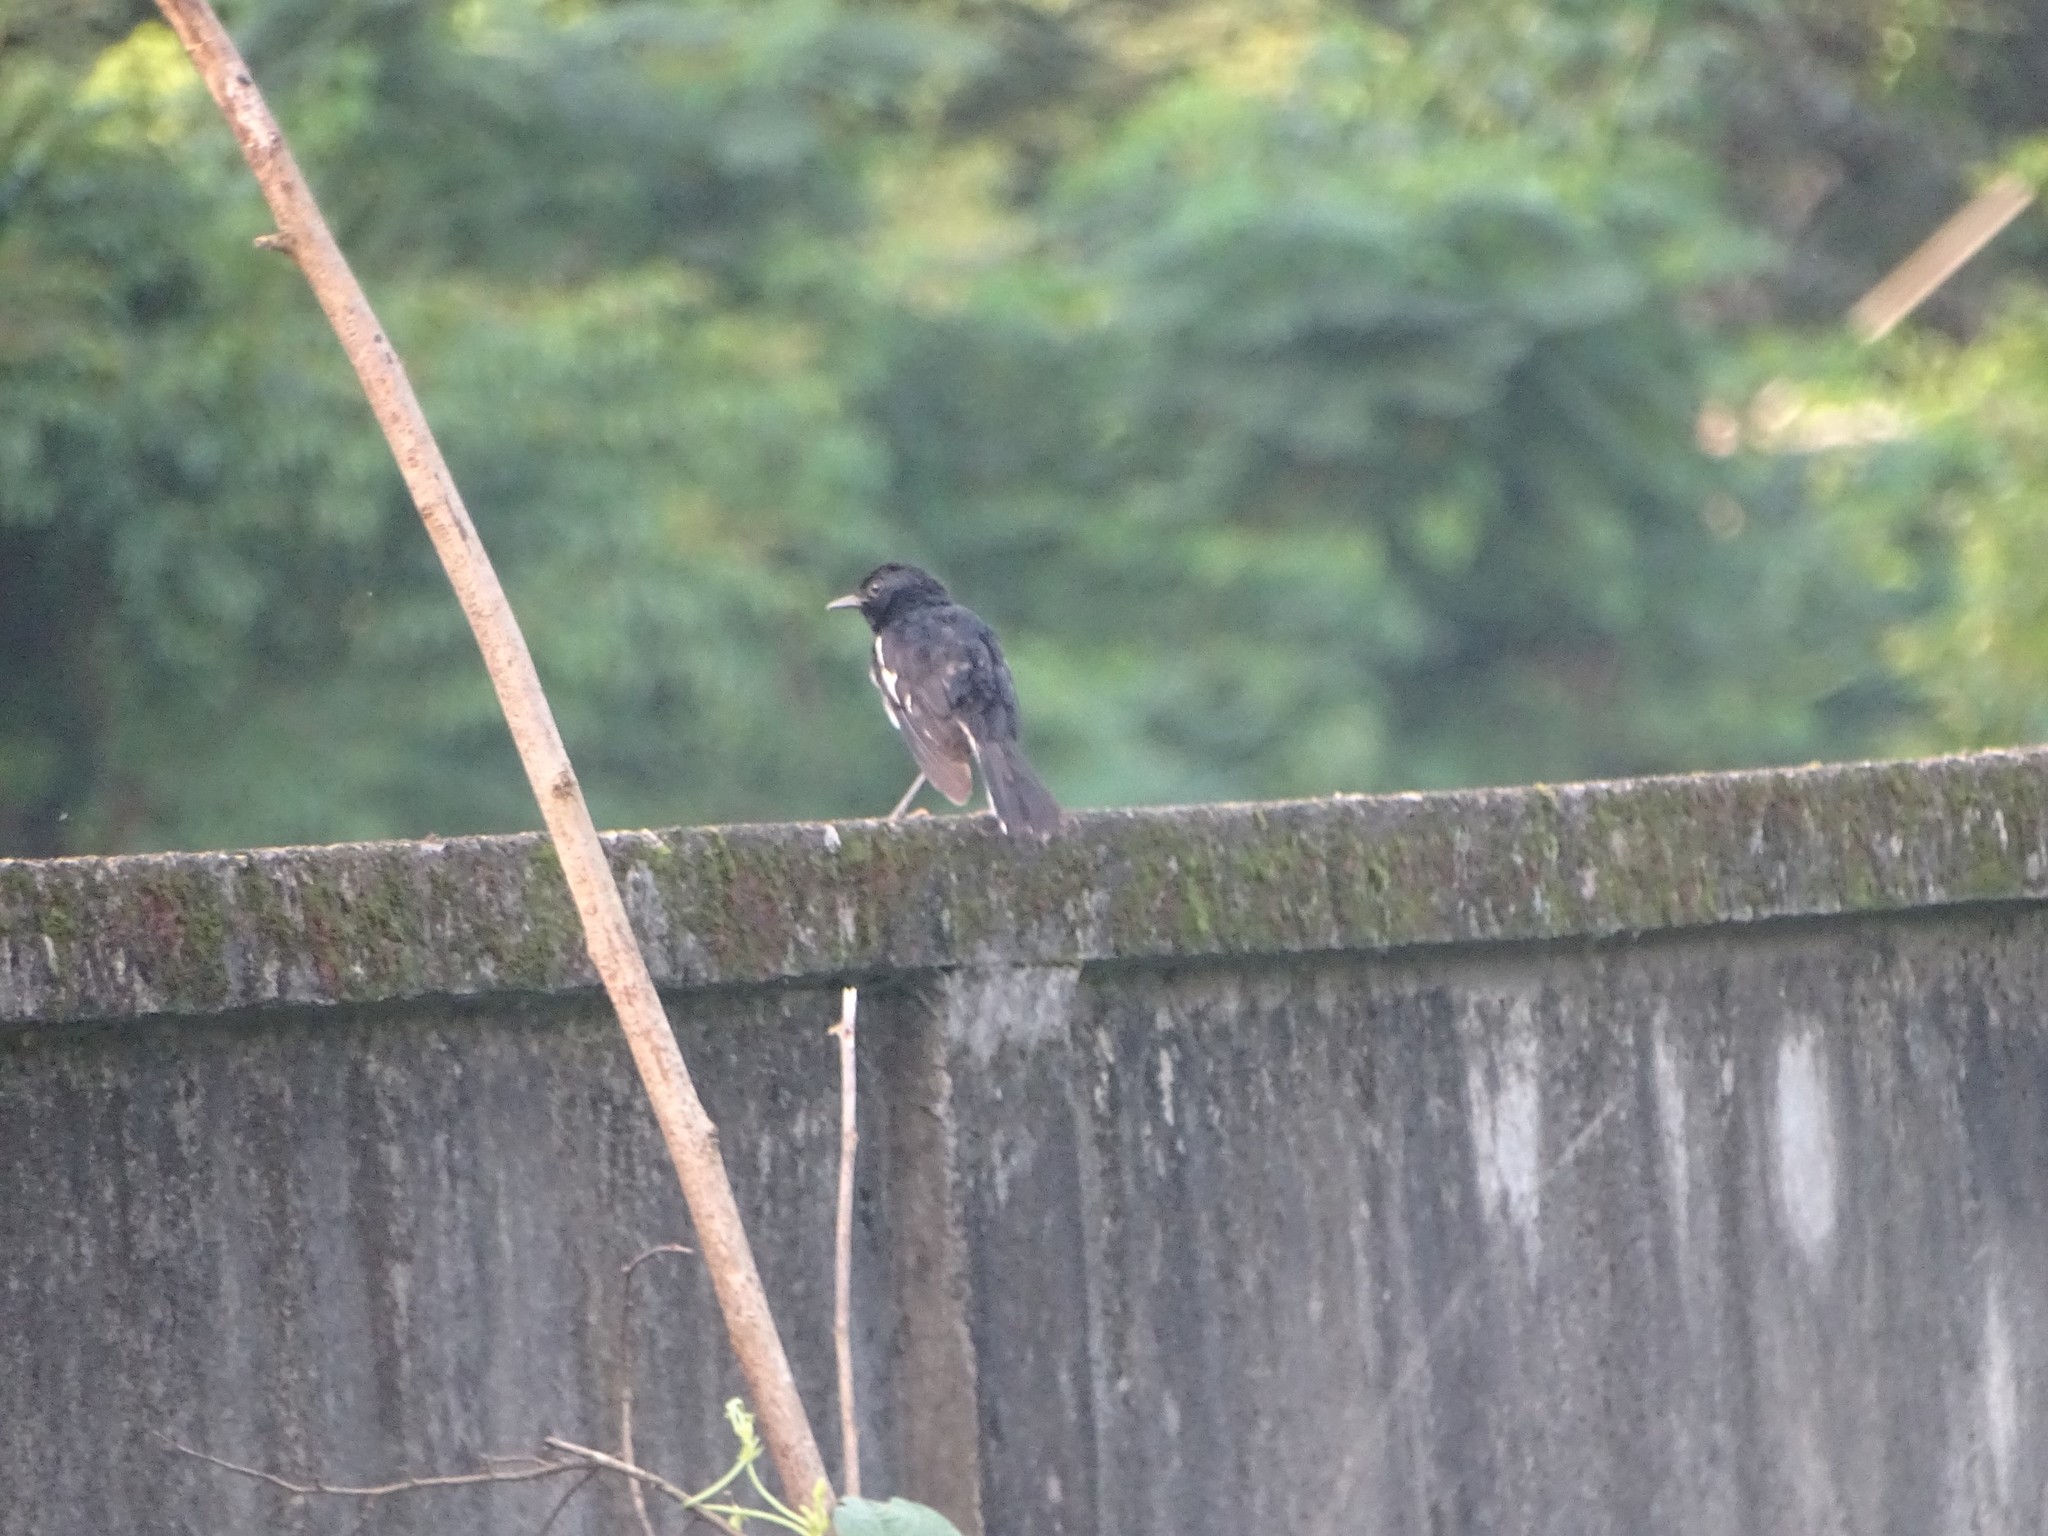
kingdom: Animalia
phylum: Chordata
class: Aves
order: Passeriformes
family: Muscicapidae
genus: Copsychus
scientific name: Copsychus saularis
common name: Oriental magpie-robin
